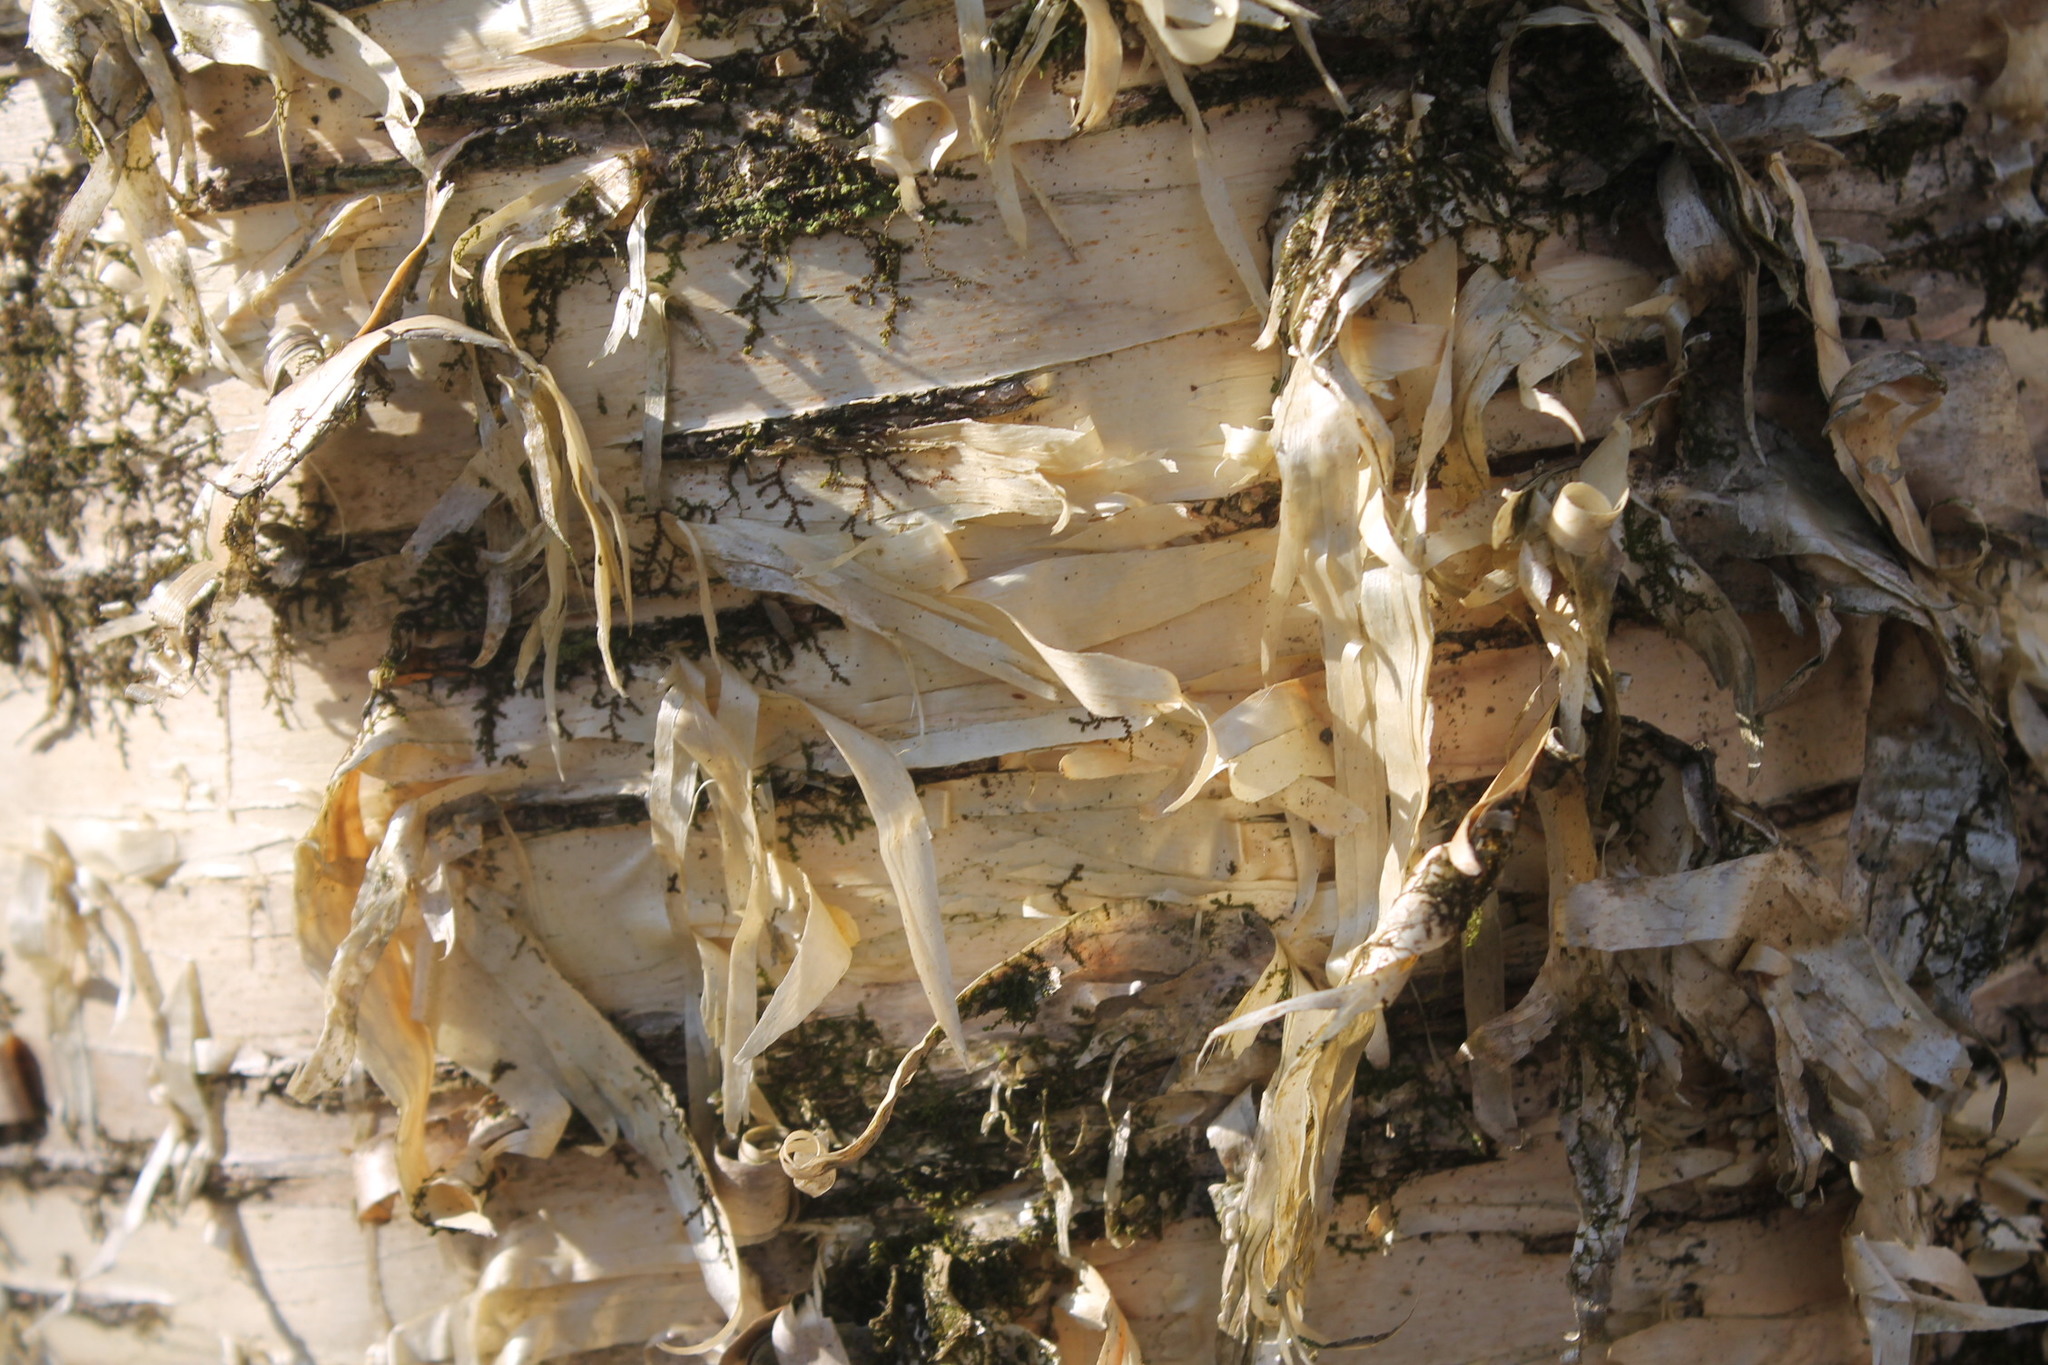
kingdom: Plantae
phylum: Tracheophyta
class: Magnoliopsida
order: Fagales
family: Betulaceae
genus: Betula
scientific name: Betula alleghaniensis
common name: Yellow birch
